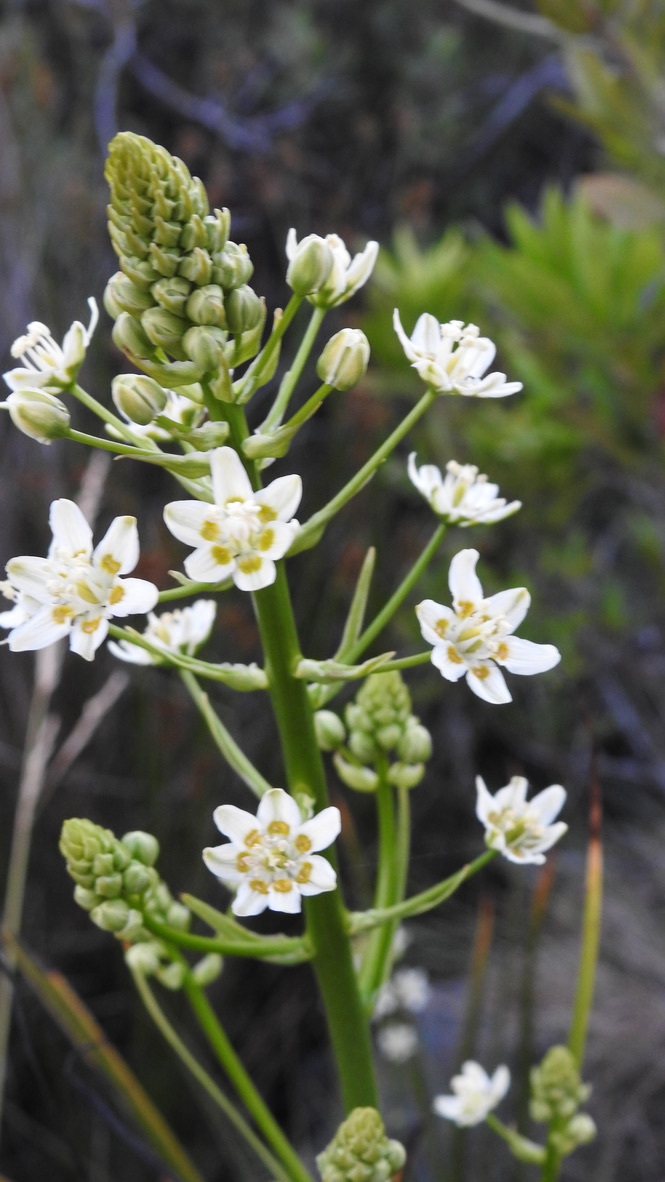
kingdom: Plantae
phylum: Tracheophyta
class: Liliopsida
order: Liliales
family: Melanthiaceae
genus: Toxicoscordion
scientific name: Toxicoscordion fremontii
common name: Fremont's death camas
